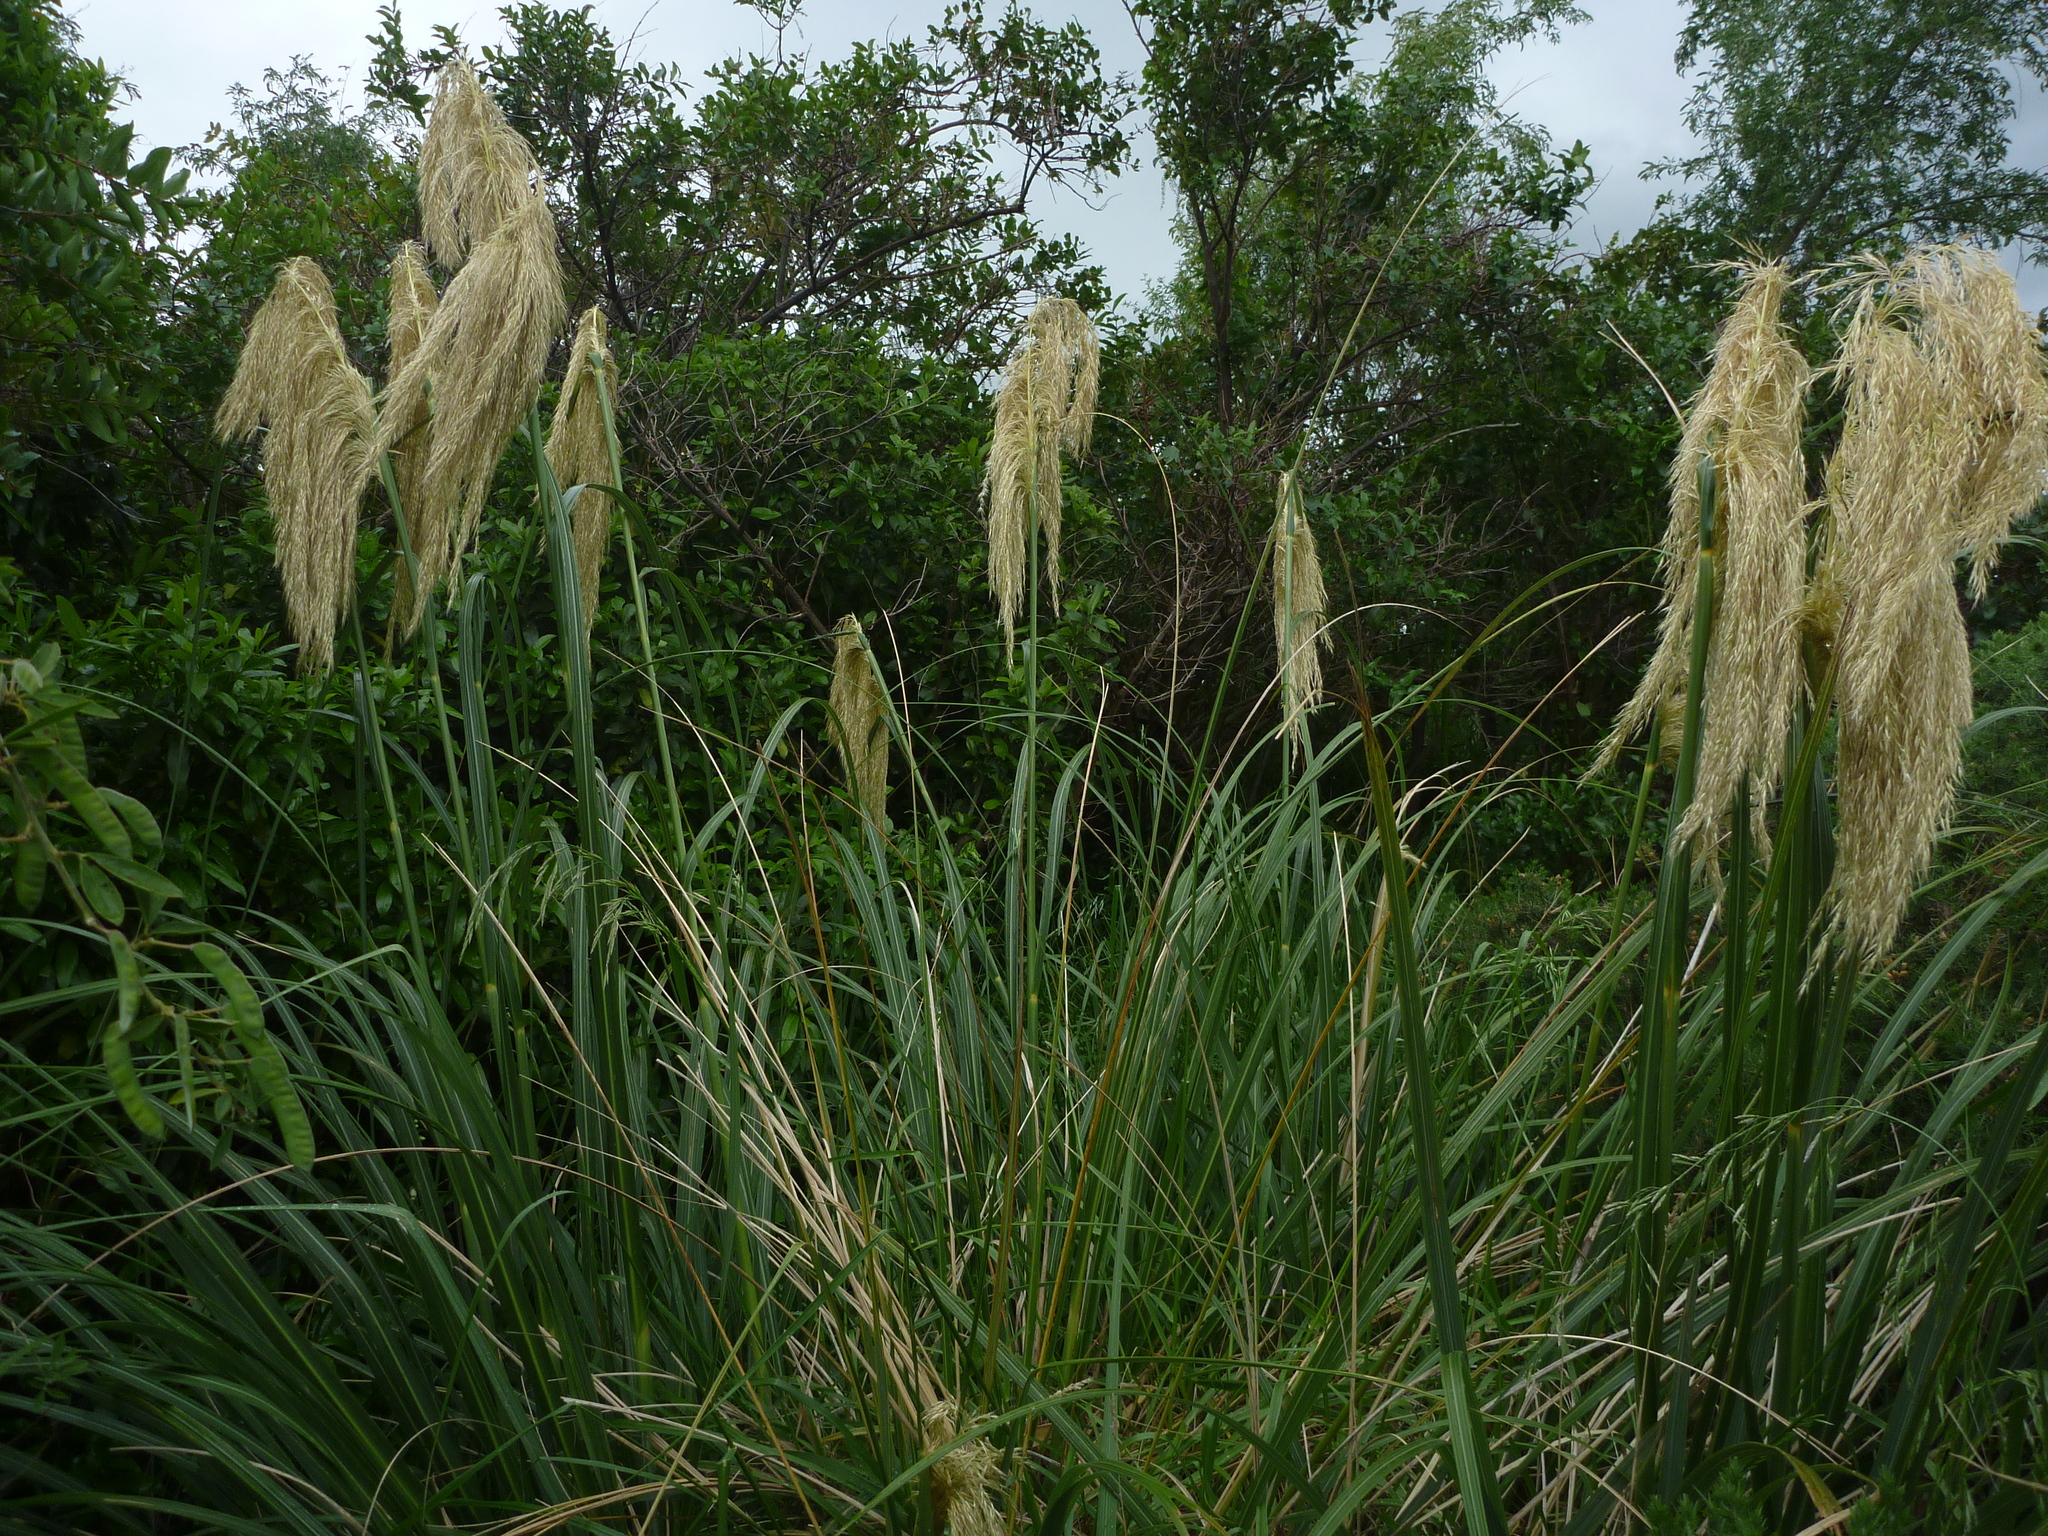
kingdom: Plantae
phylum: Tracheophyta
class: Liliopsida
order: Poales
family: Poaceae
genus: Austroderia
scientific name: Austroderia fulvida
